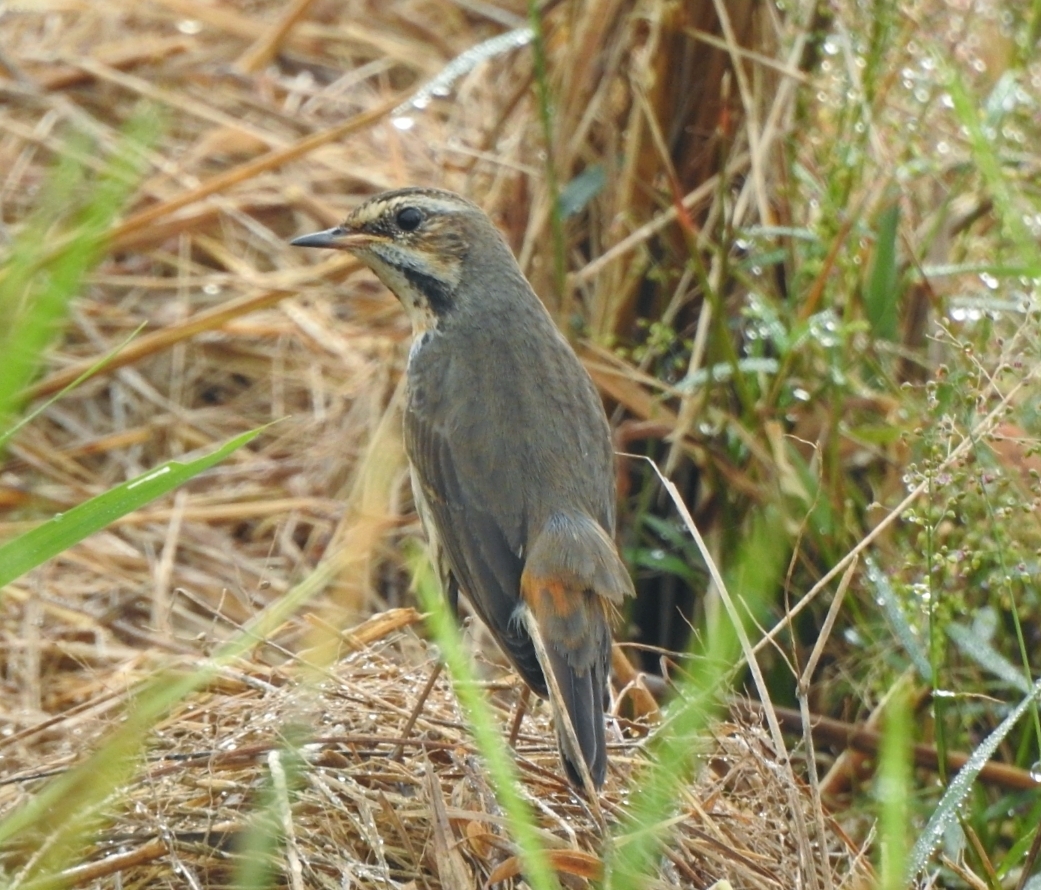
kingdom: Animalia
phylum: Chordata
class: Aves
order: Passeriformes
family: Muscicapidae
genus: Luscinia
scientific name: Luscinia svecica
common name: Bluethroat
